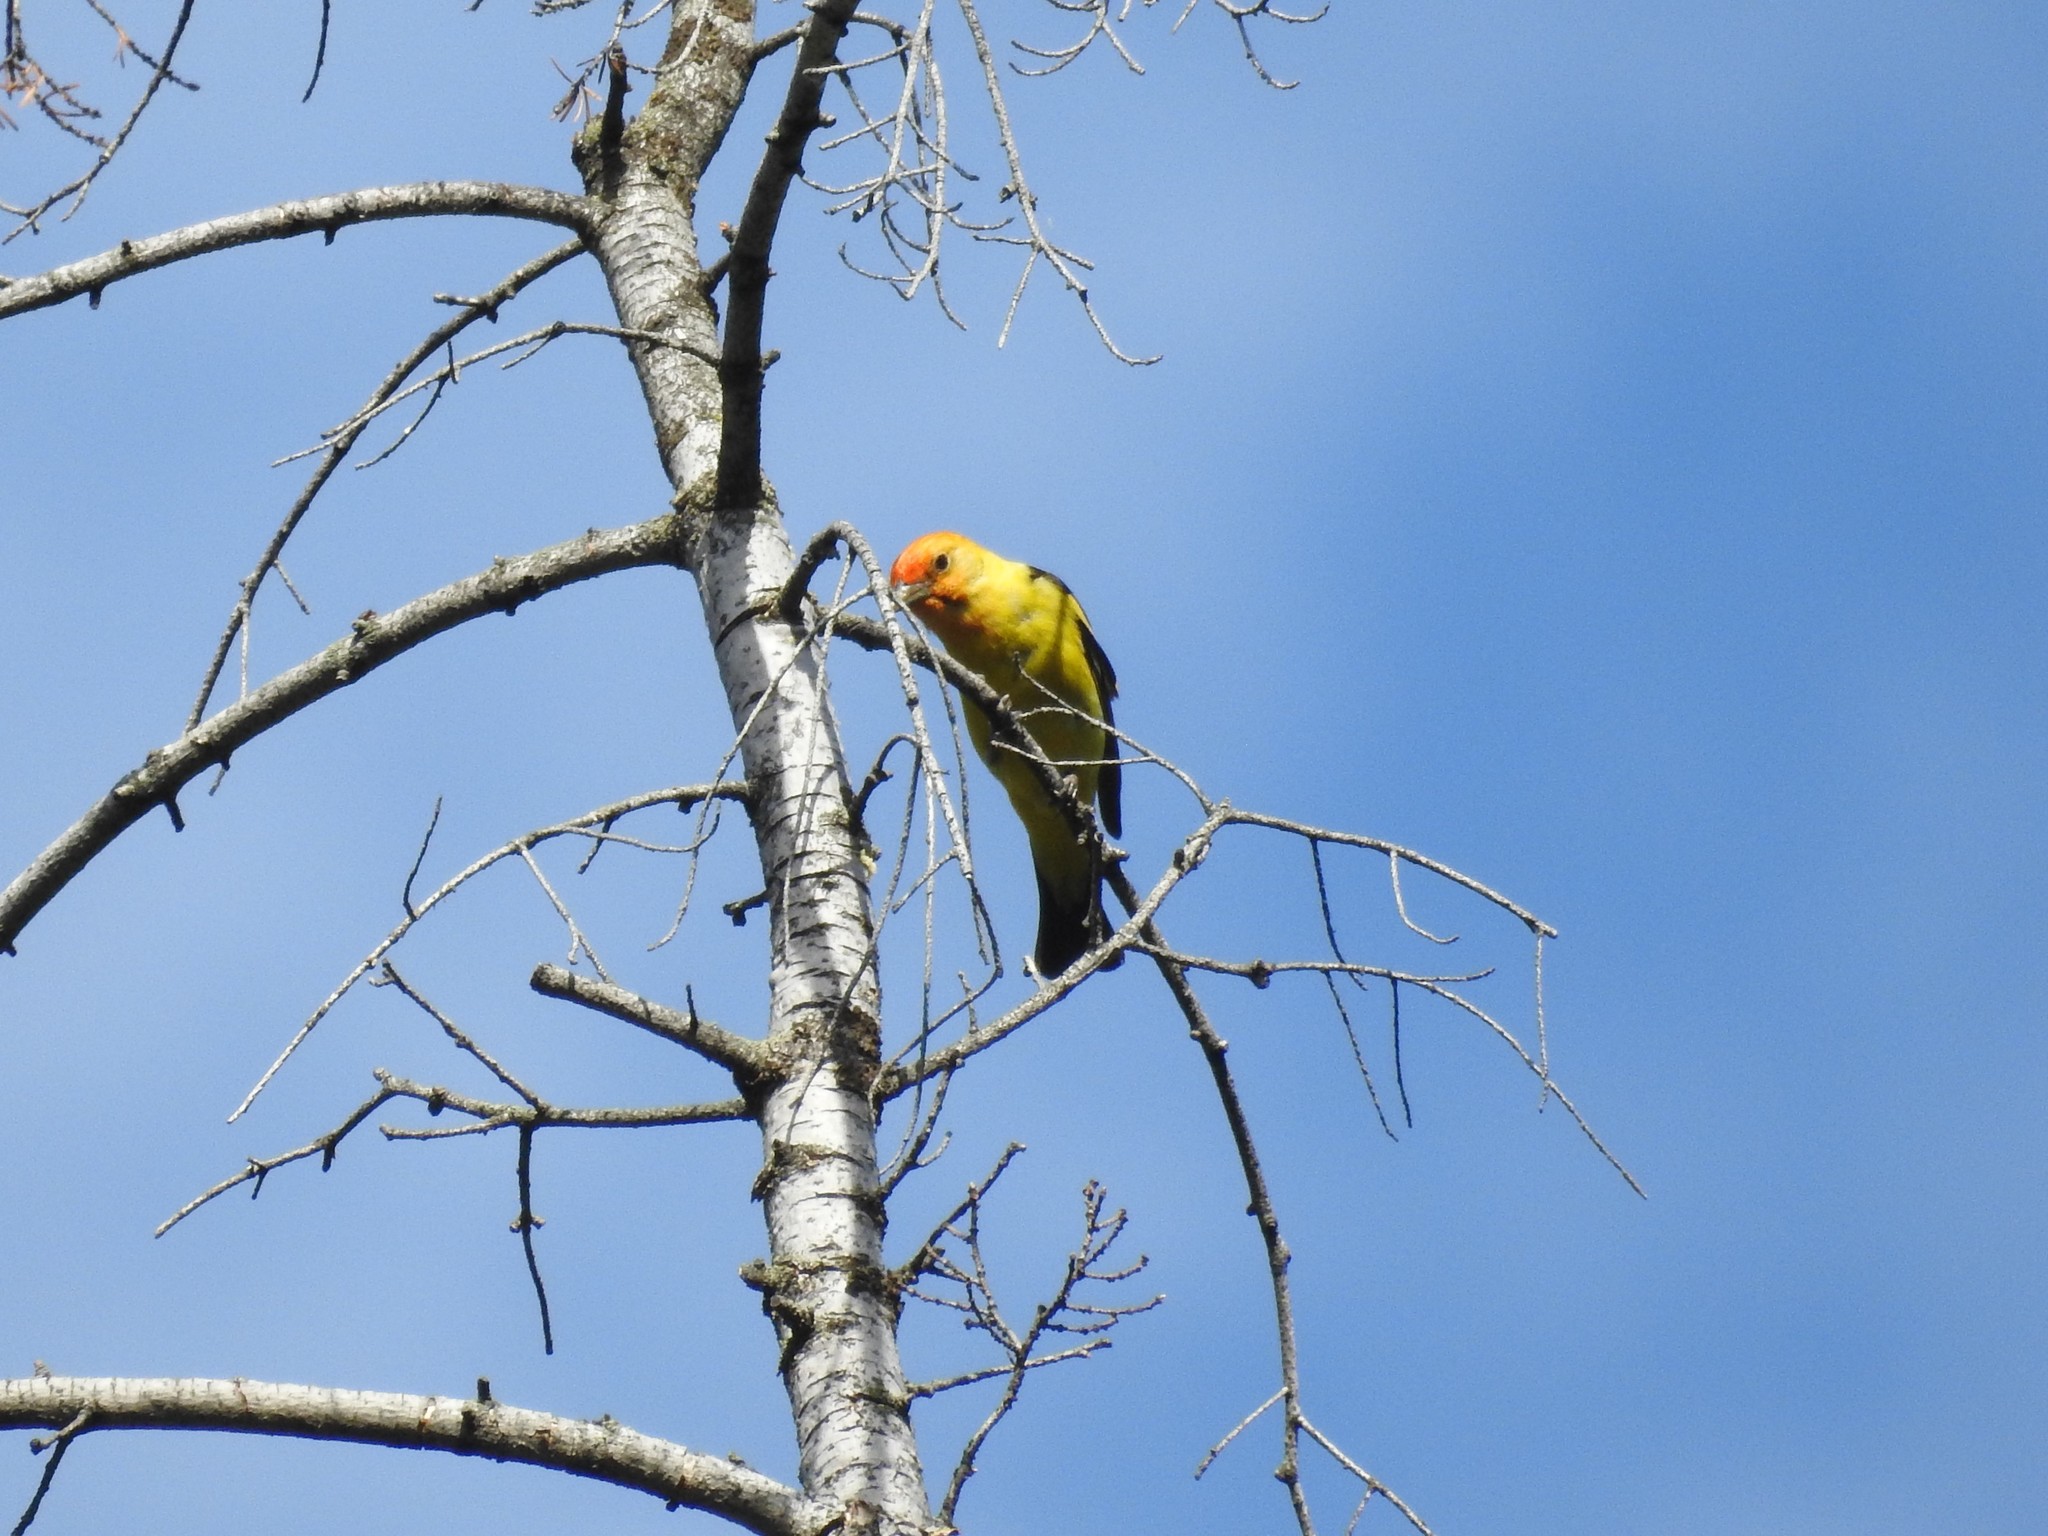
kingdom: Animalia
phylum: Chordata
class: Aves
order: Passeriformes
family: Cardinalidae
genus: Piranga
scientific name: Piranga ludoviciana
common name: Western tanager
